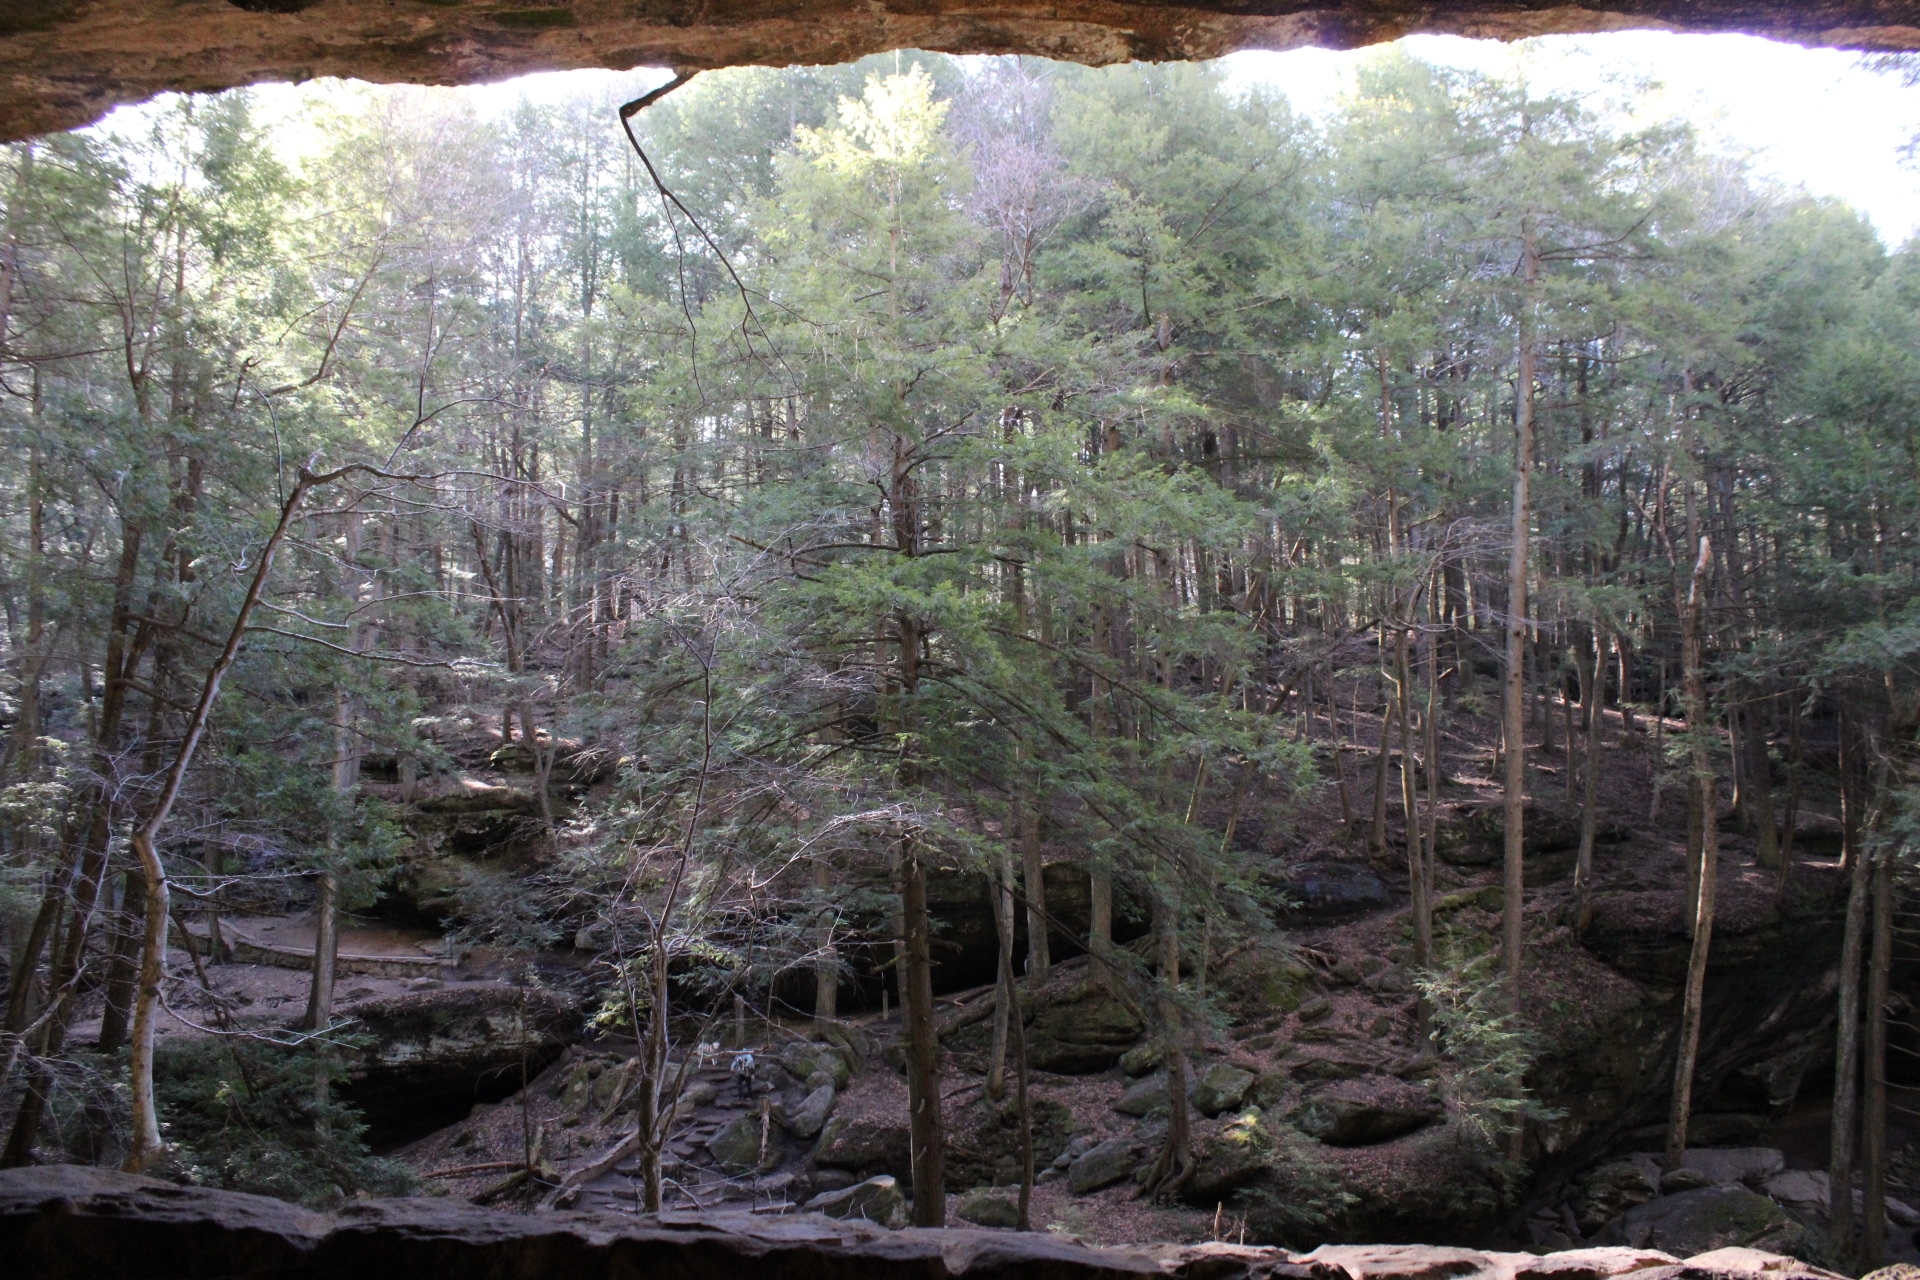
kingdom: Plantae
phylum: Tracheophyta
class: Pinopsida
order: Pinales
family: Pinaceae
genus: Tsuga
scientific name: Tsuga canadensis
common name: Eastern hemlock
